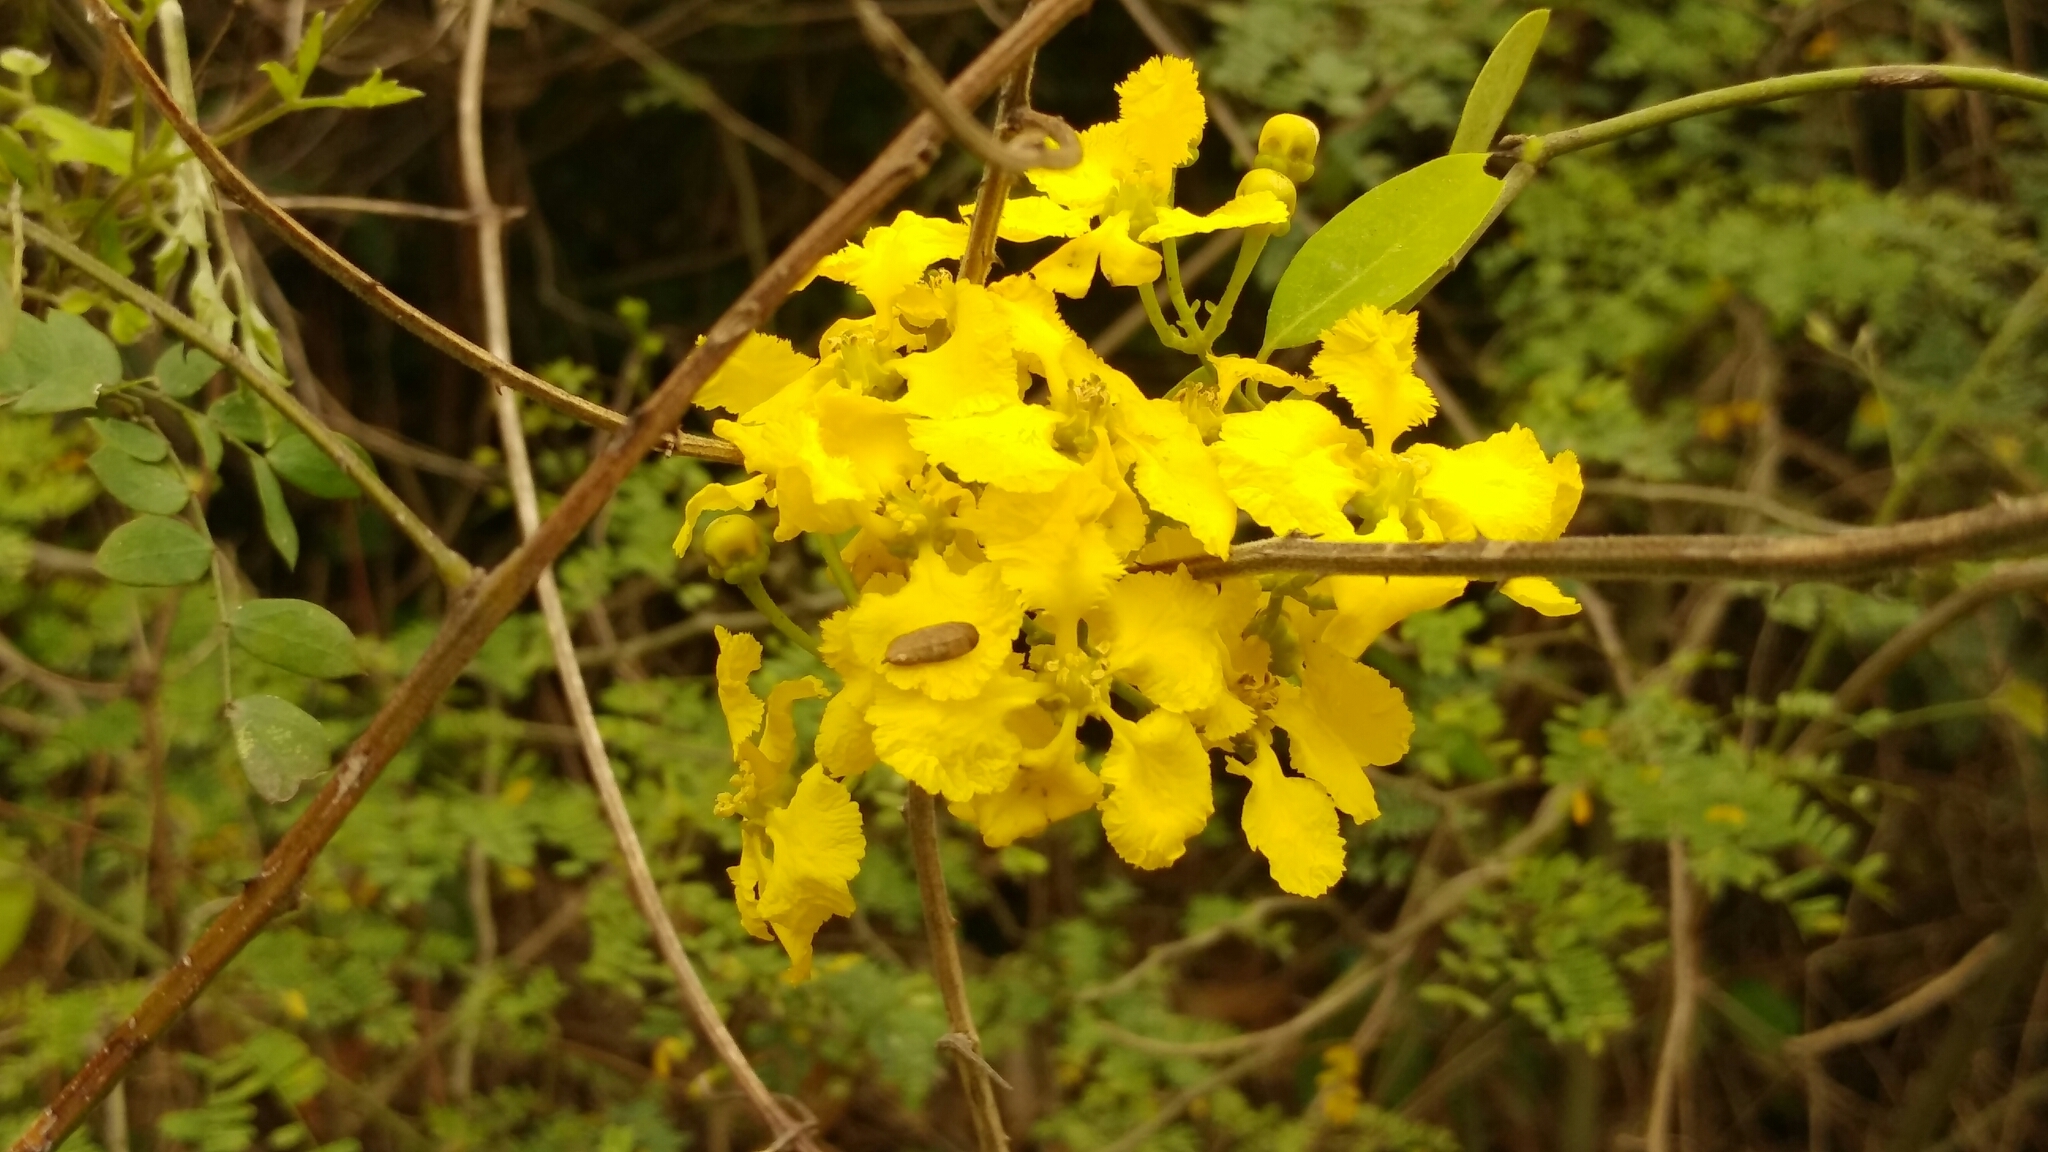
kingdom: Plantae
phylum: Tracheophyta
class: Magnoliopsida
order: Malpighiales
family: Malpighiaceae
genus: Callaeum
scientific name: Callaeum macropterum
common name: Mexican butterfly-vine
